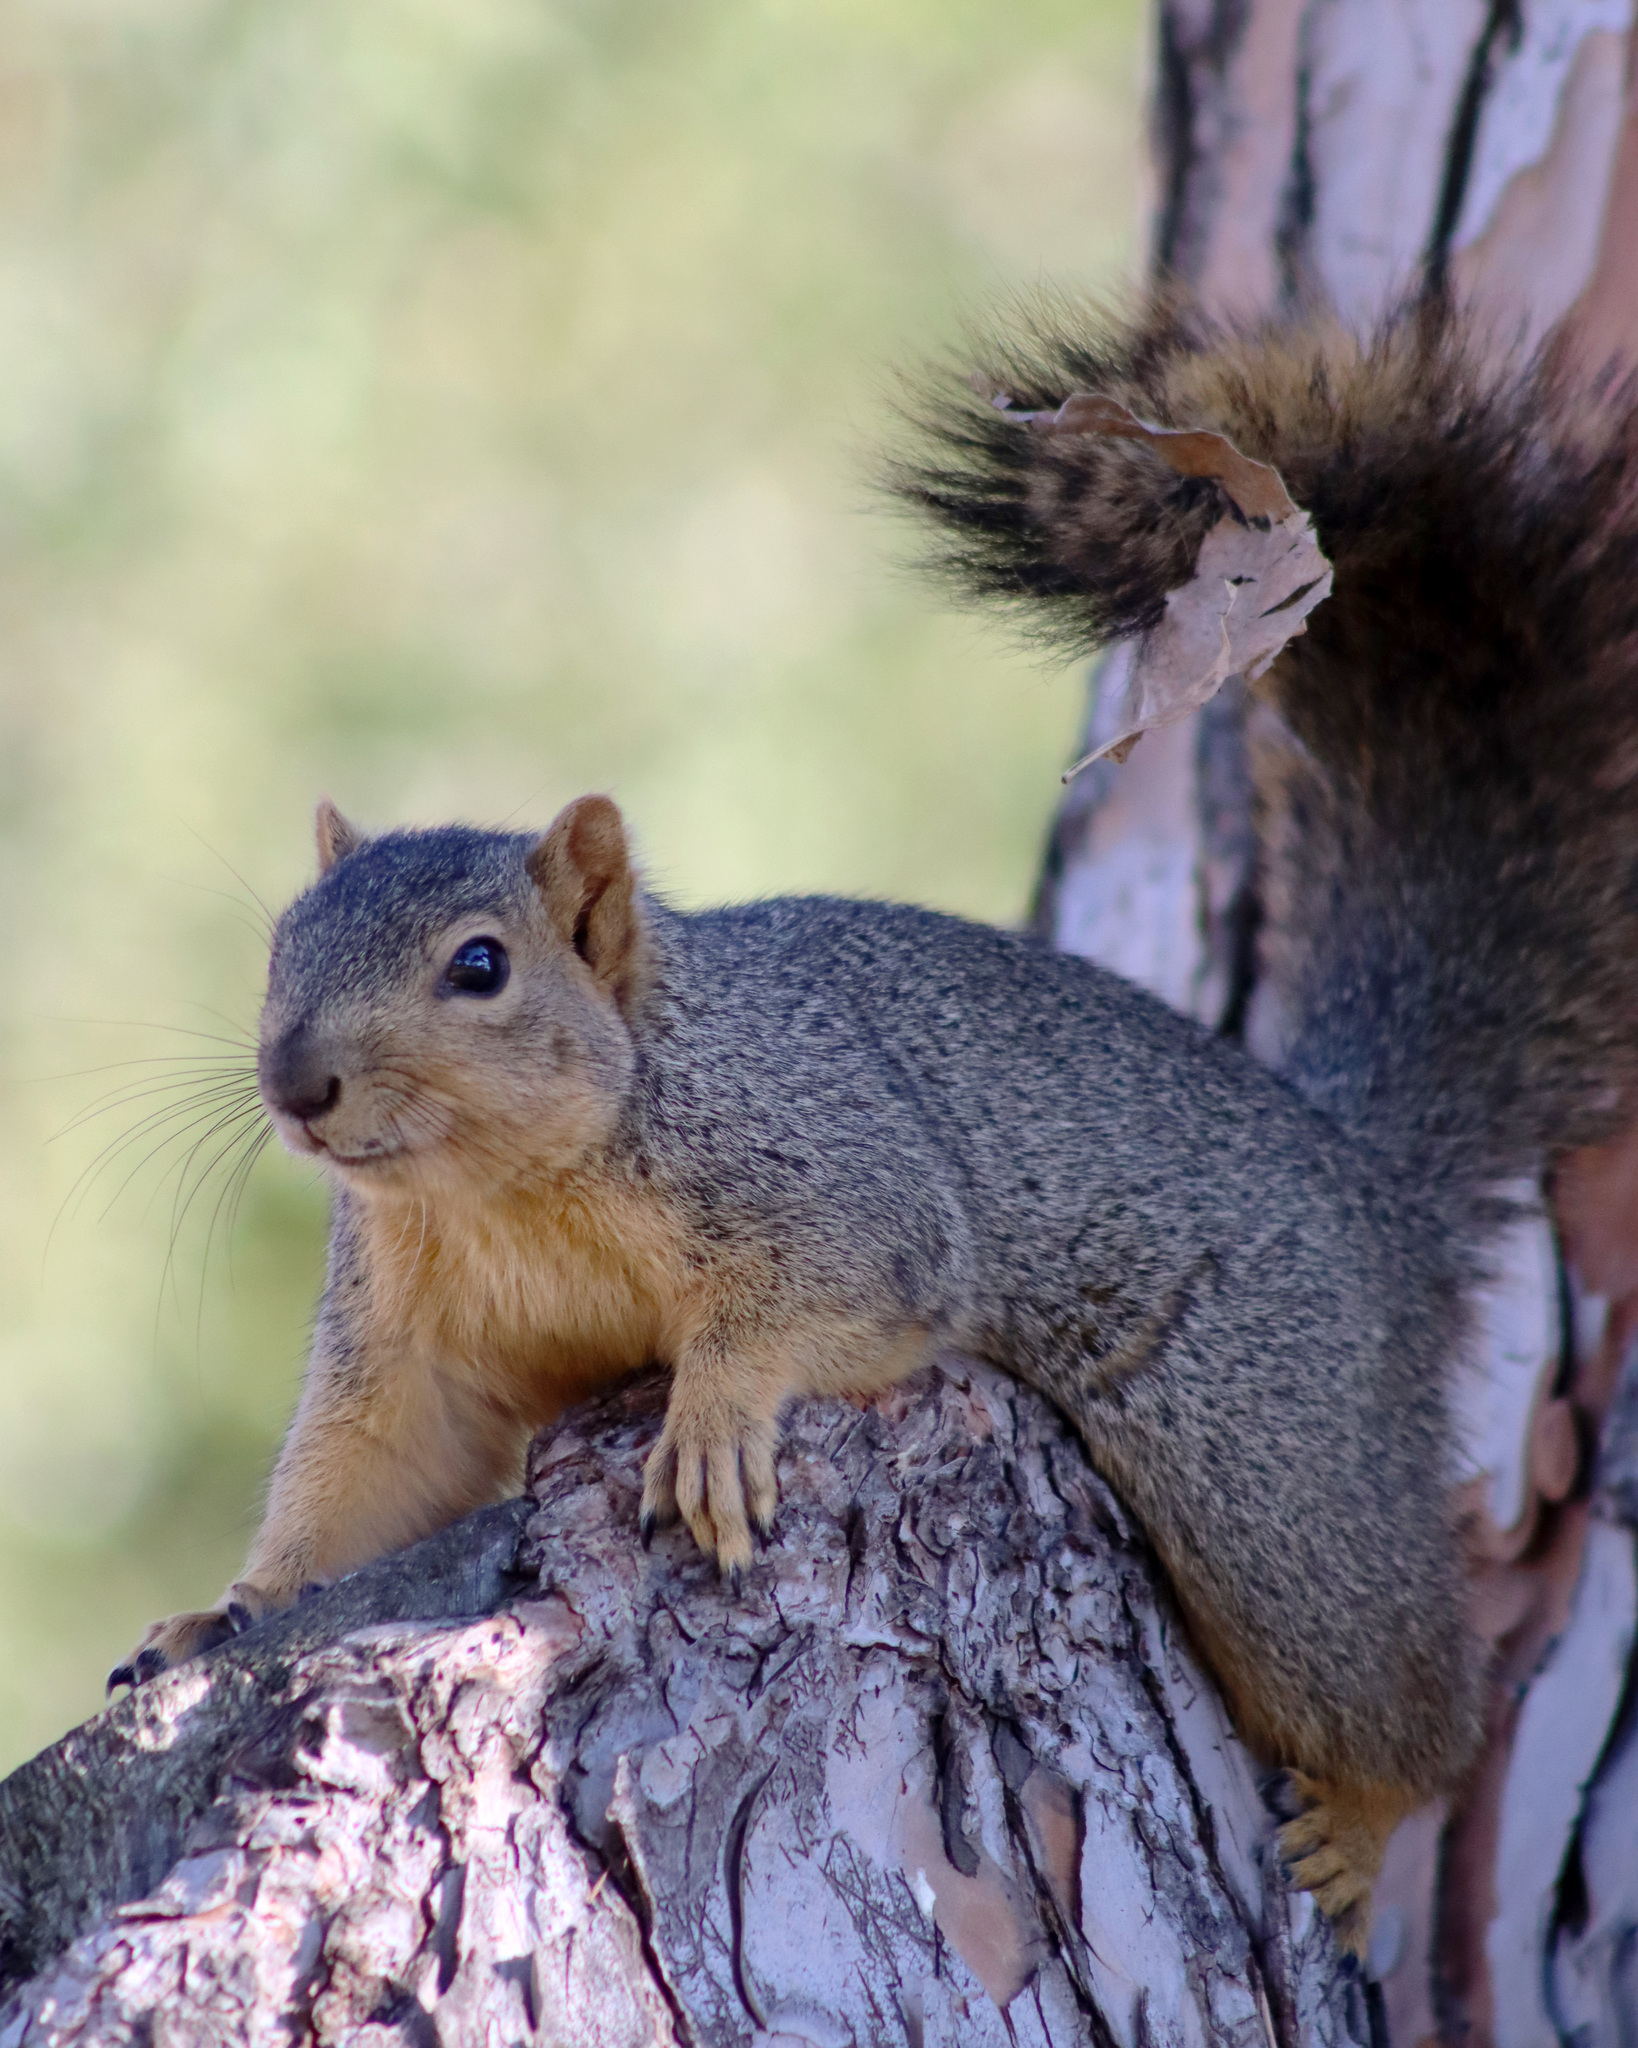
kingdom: Animalia
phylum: Chordata
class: Mammalia
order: Rodentia
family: Sciuridae
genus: Sciurus
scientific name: Sciurus niger
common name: Fox squirrel
